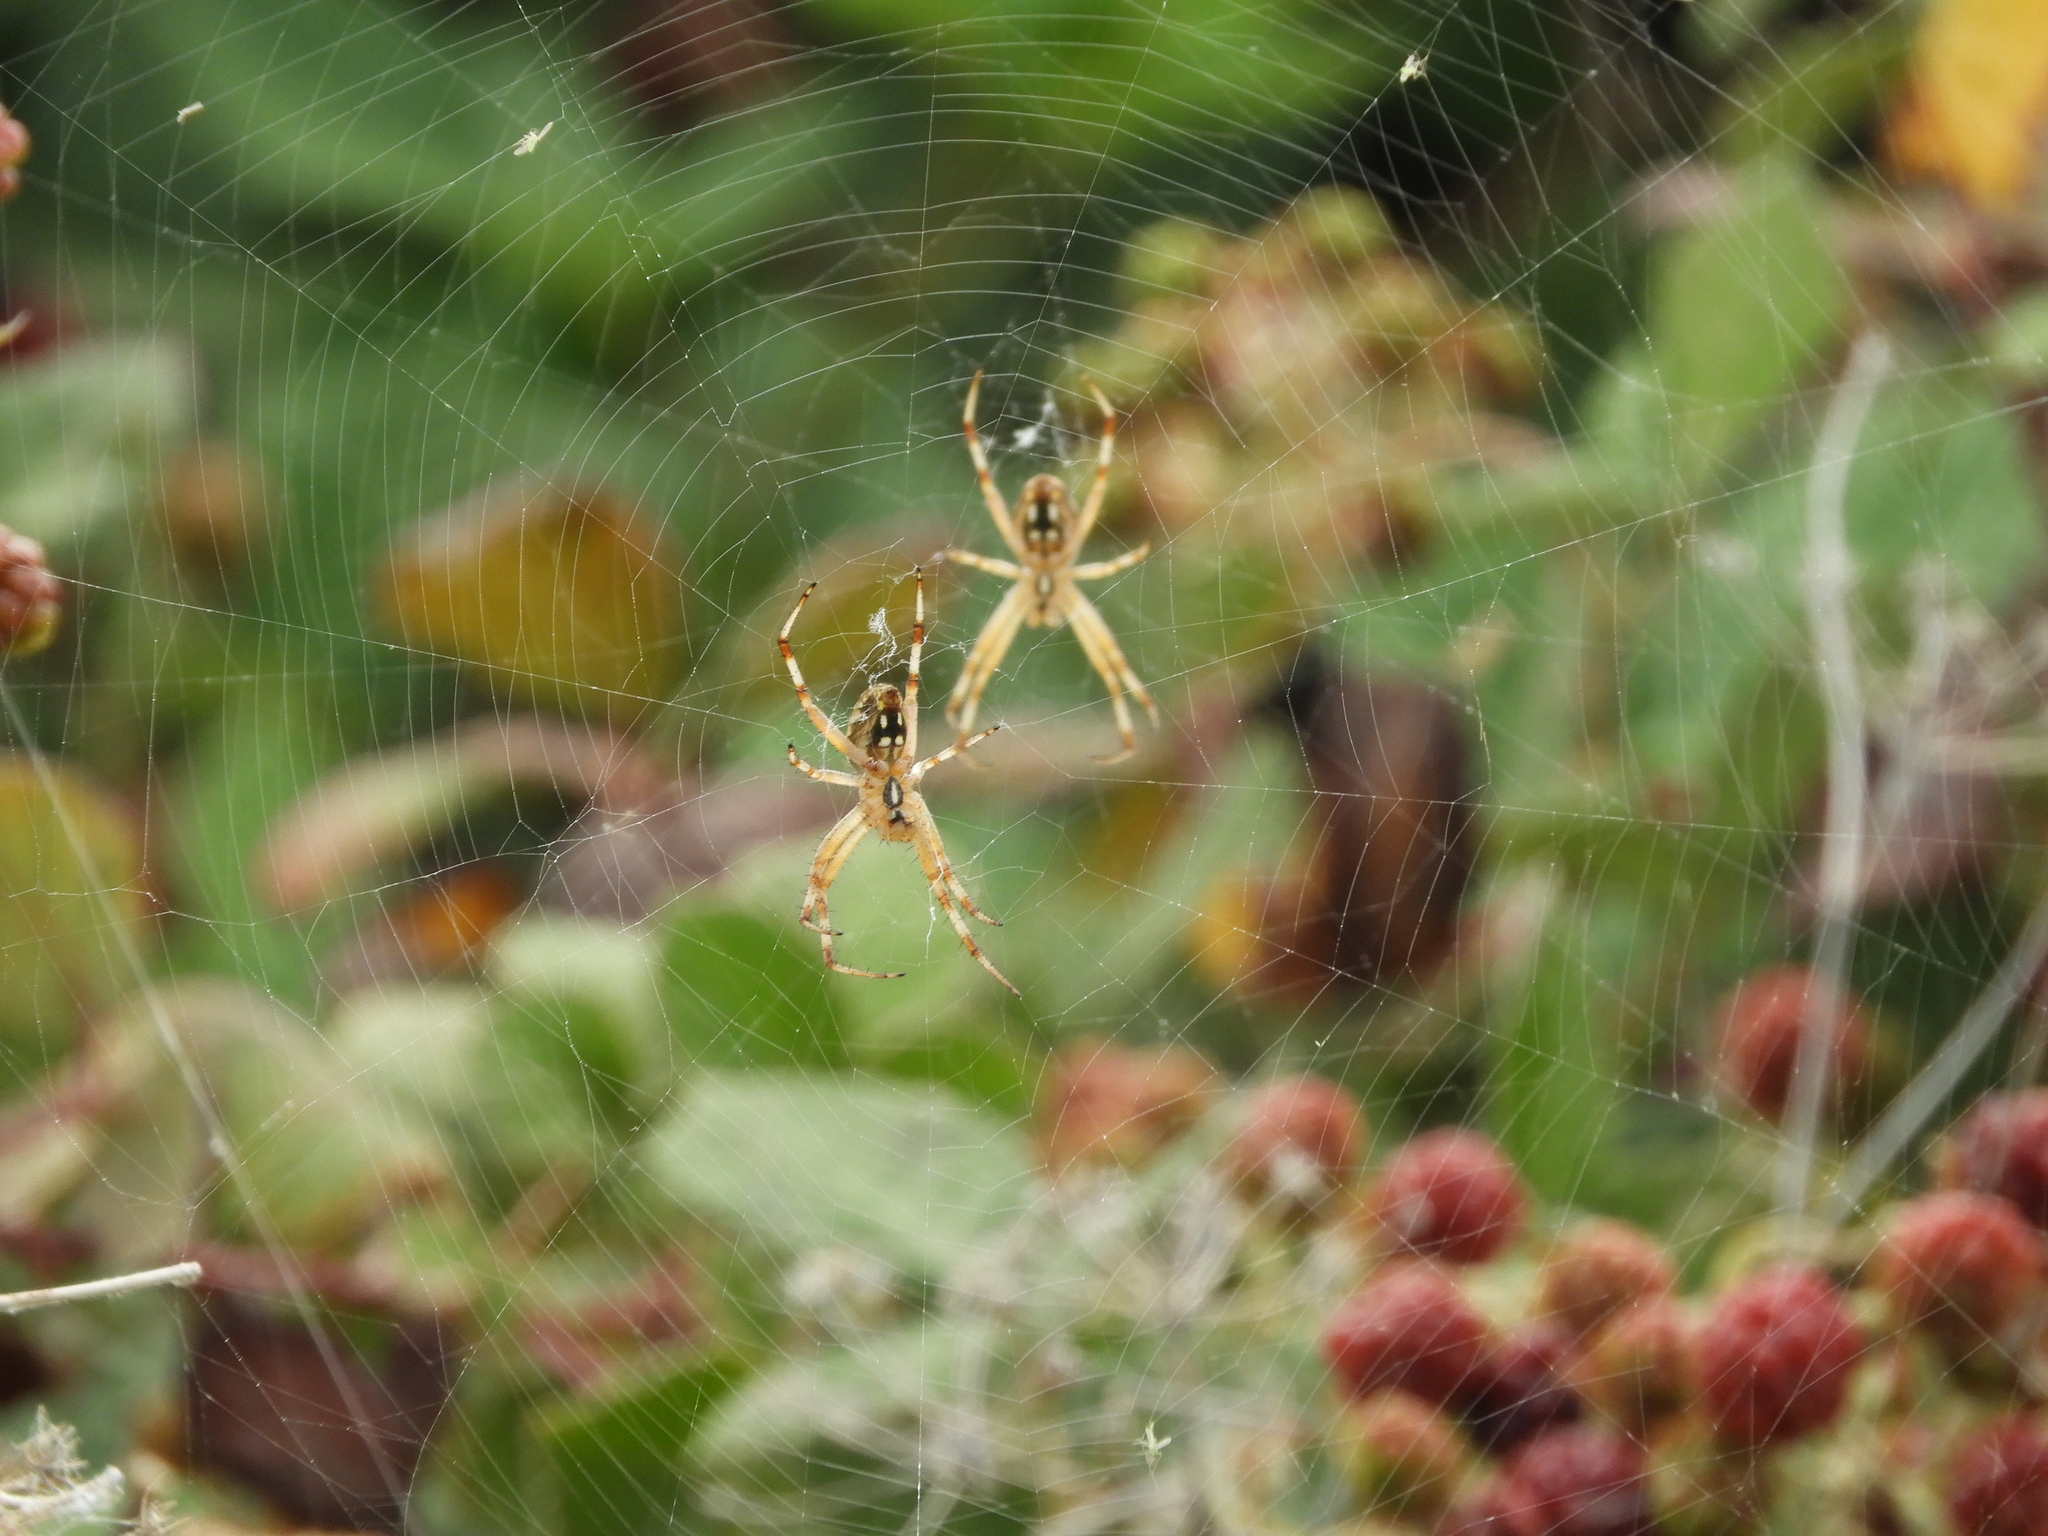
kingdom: Animalia
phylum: Arthropoda
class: Arachnida
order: Araneae
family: Araneidae
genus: Neoscona
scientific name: Neoscona oaxacensis
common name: Orb weavers
